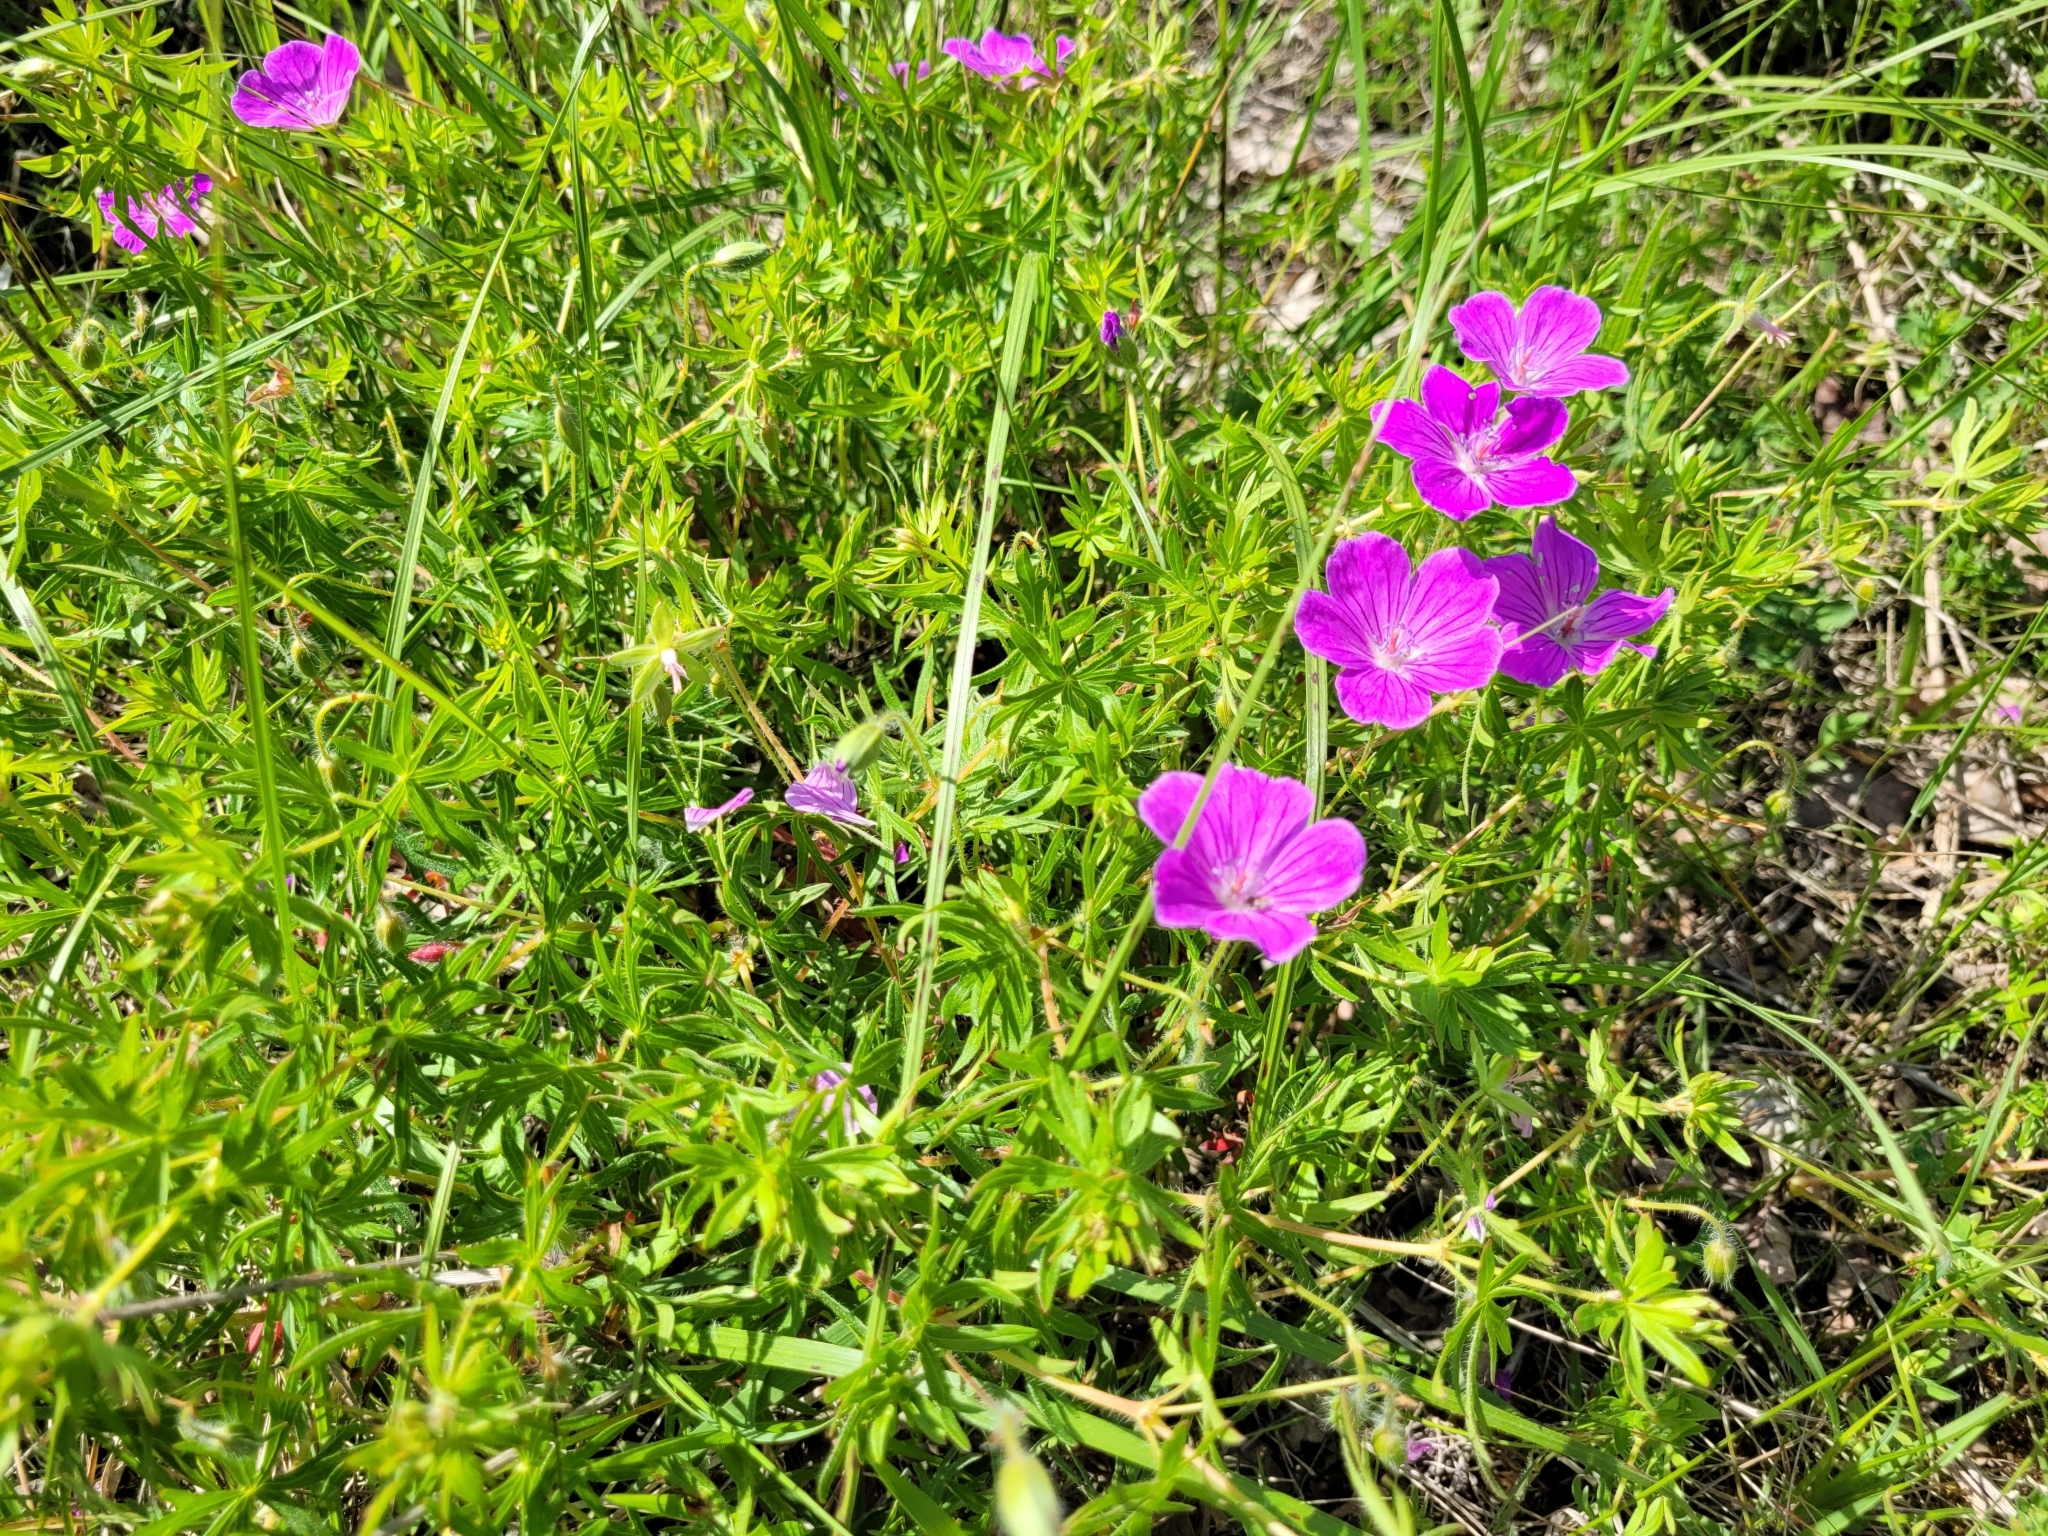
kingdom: Plantae
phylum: Tracheophyta
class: Magnoliopsida
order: Geraniales
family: Geraniaceae
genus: Geranium
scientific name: Geranium sanguineum
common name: Bloody crane's-bill
